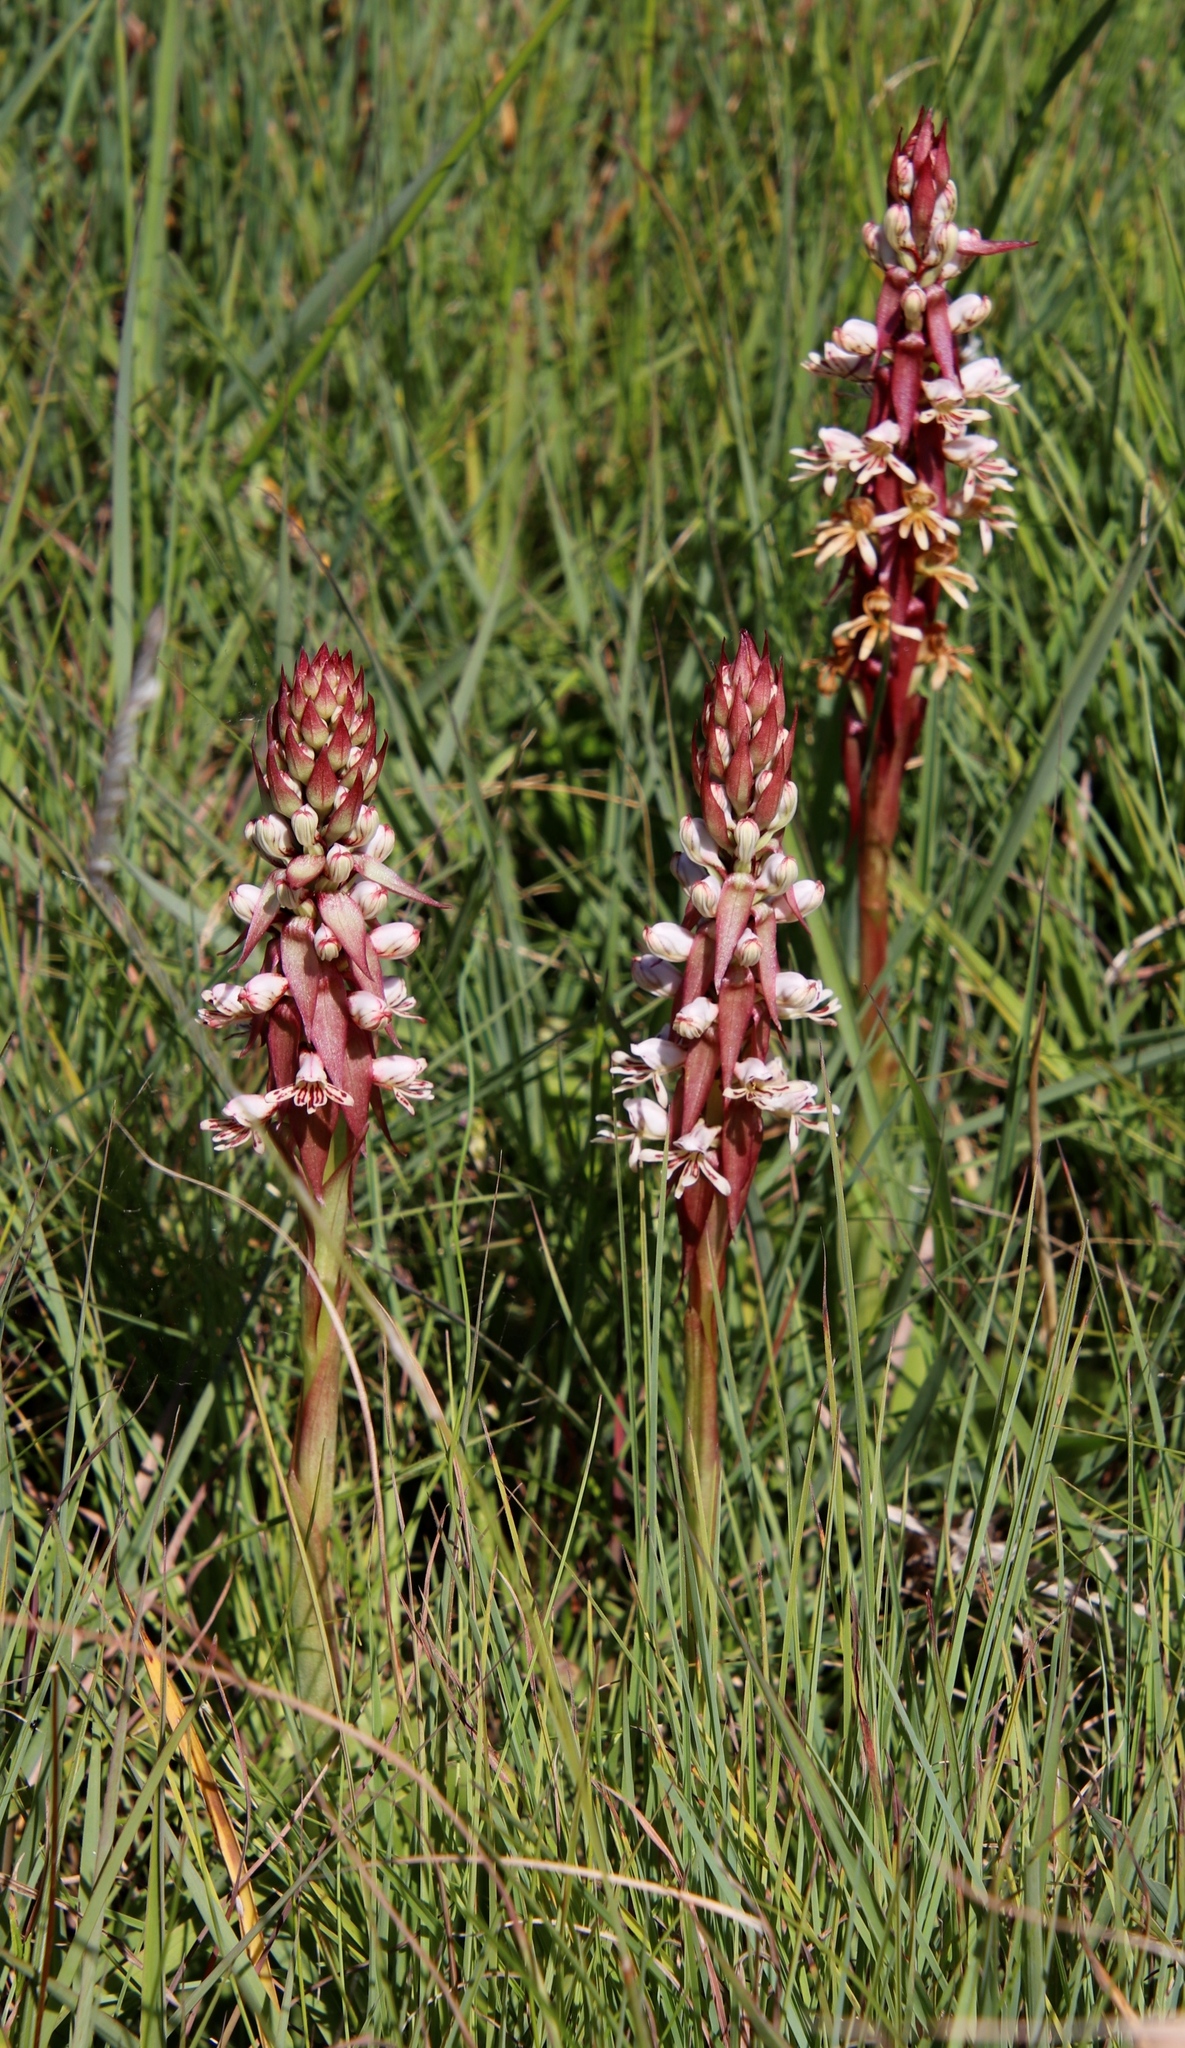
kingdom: Plantae
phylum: Tracheophyta
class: Liliopsida
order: Asparagales
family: Orchidaceae
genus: Satyrium
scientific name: Satyrium cristatum
